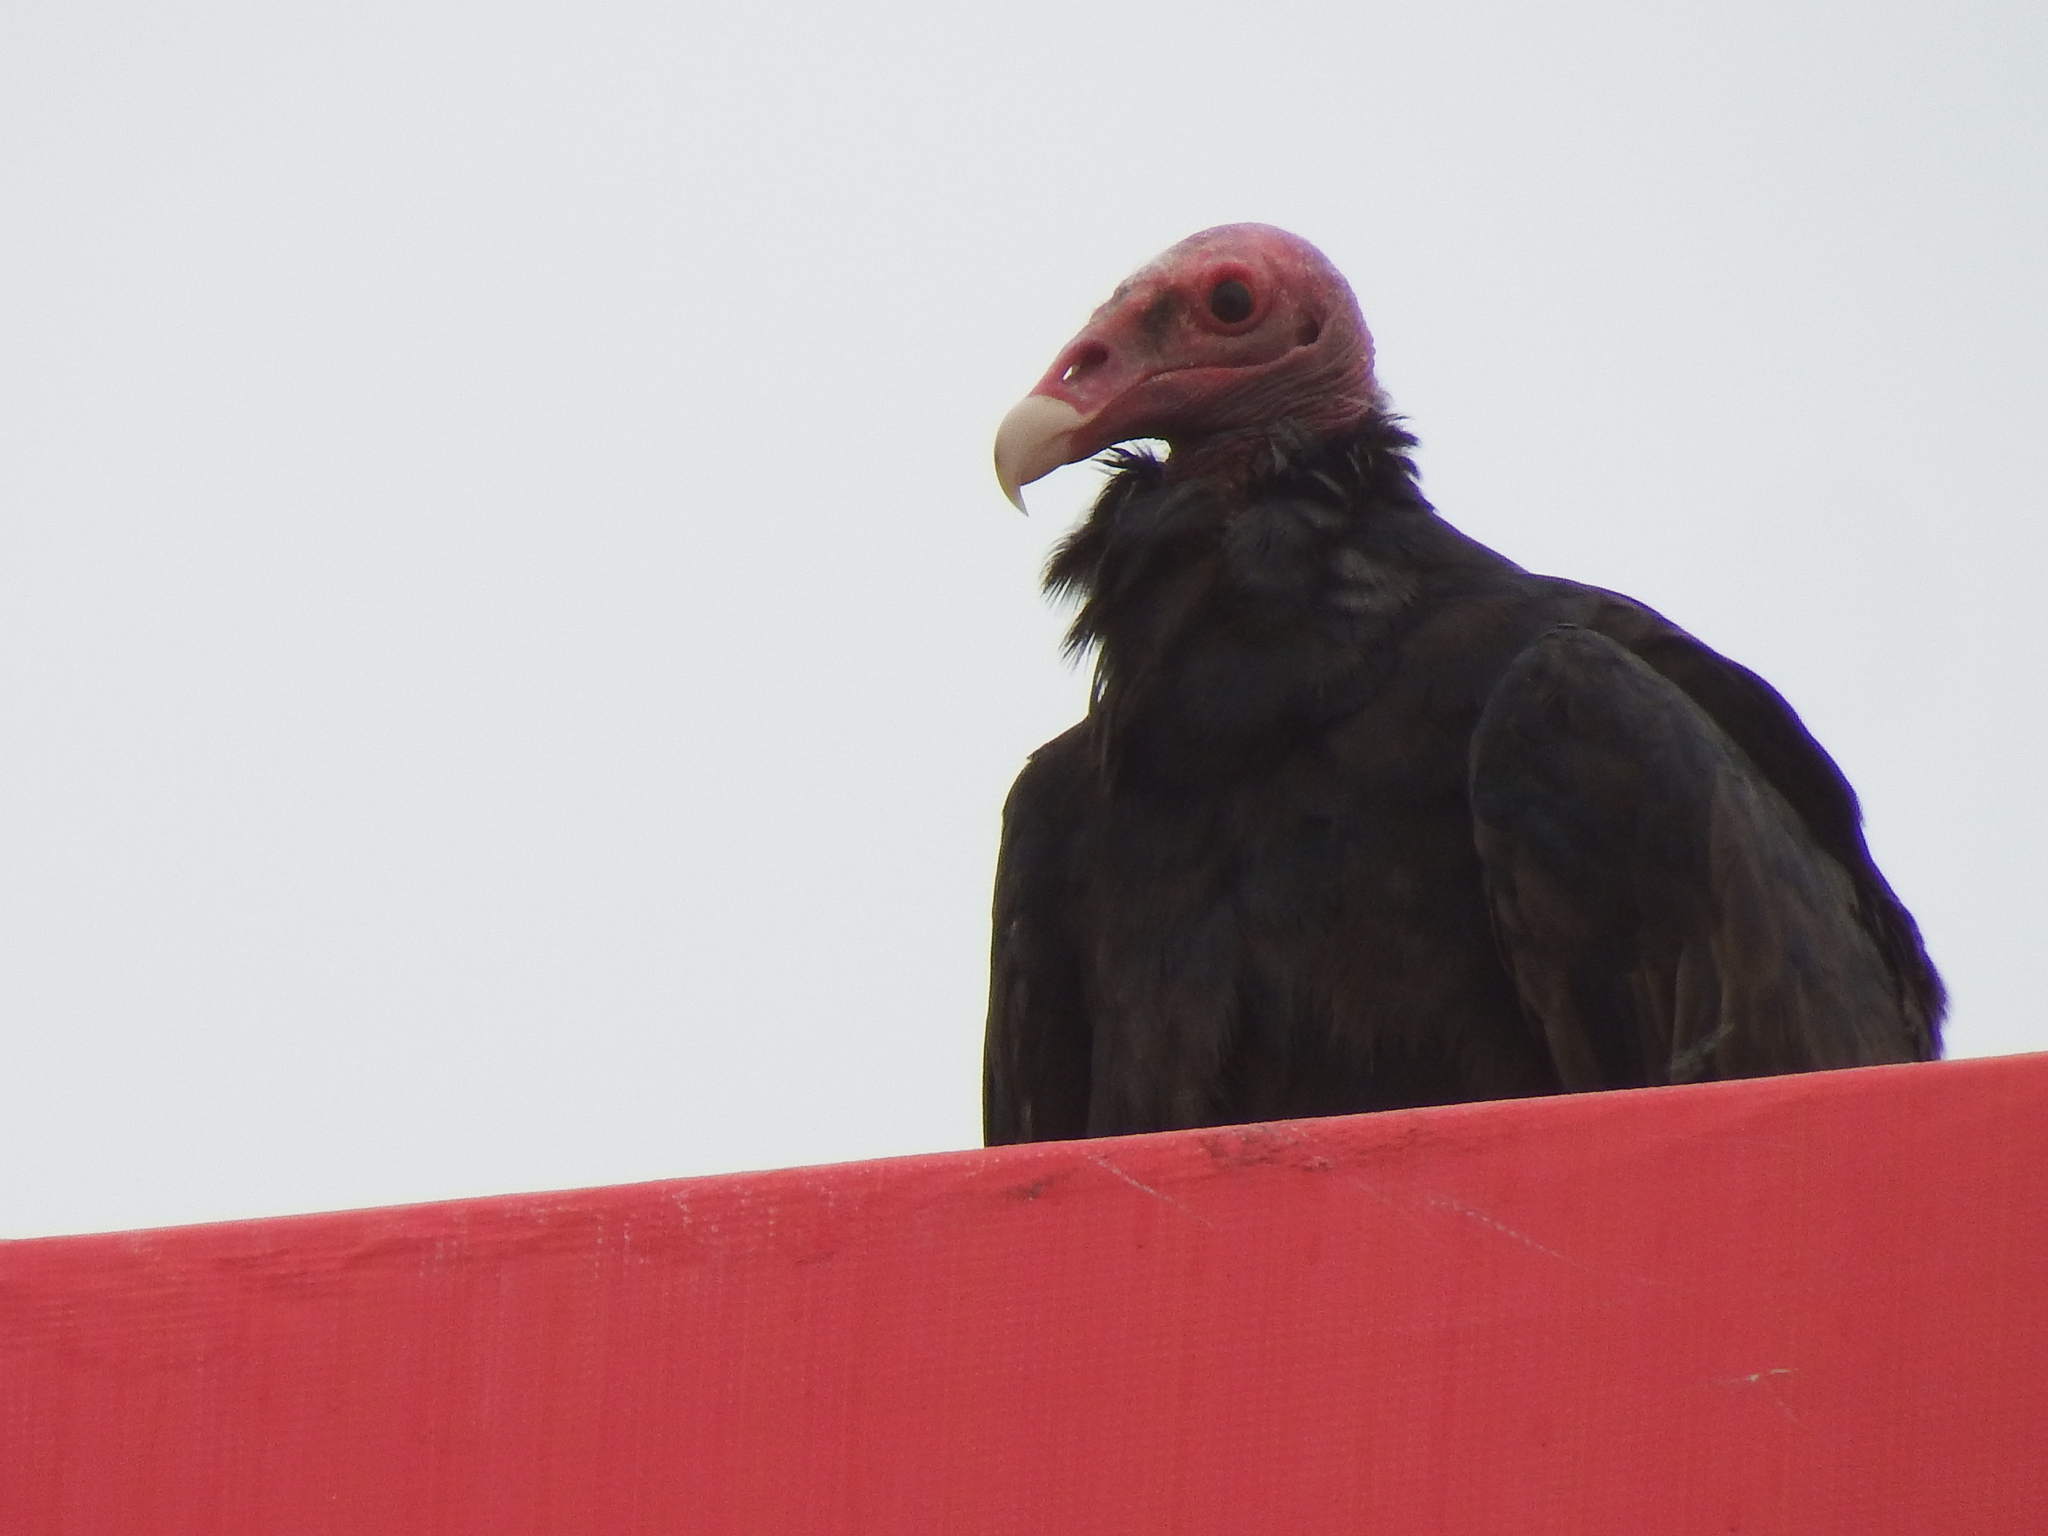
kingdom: Animalia
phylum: Chordata
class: Aves
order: Accipitriformes
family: Cathartidae
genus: Cathartes
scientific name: Cathartes aura
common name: Turkey vulture
